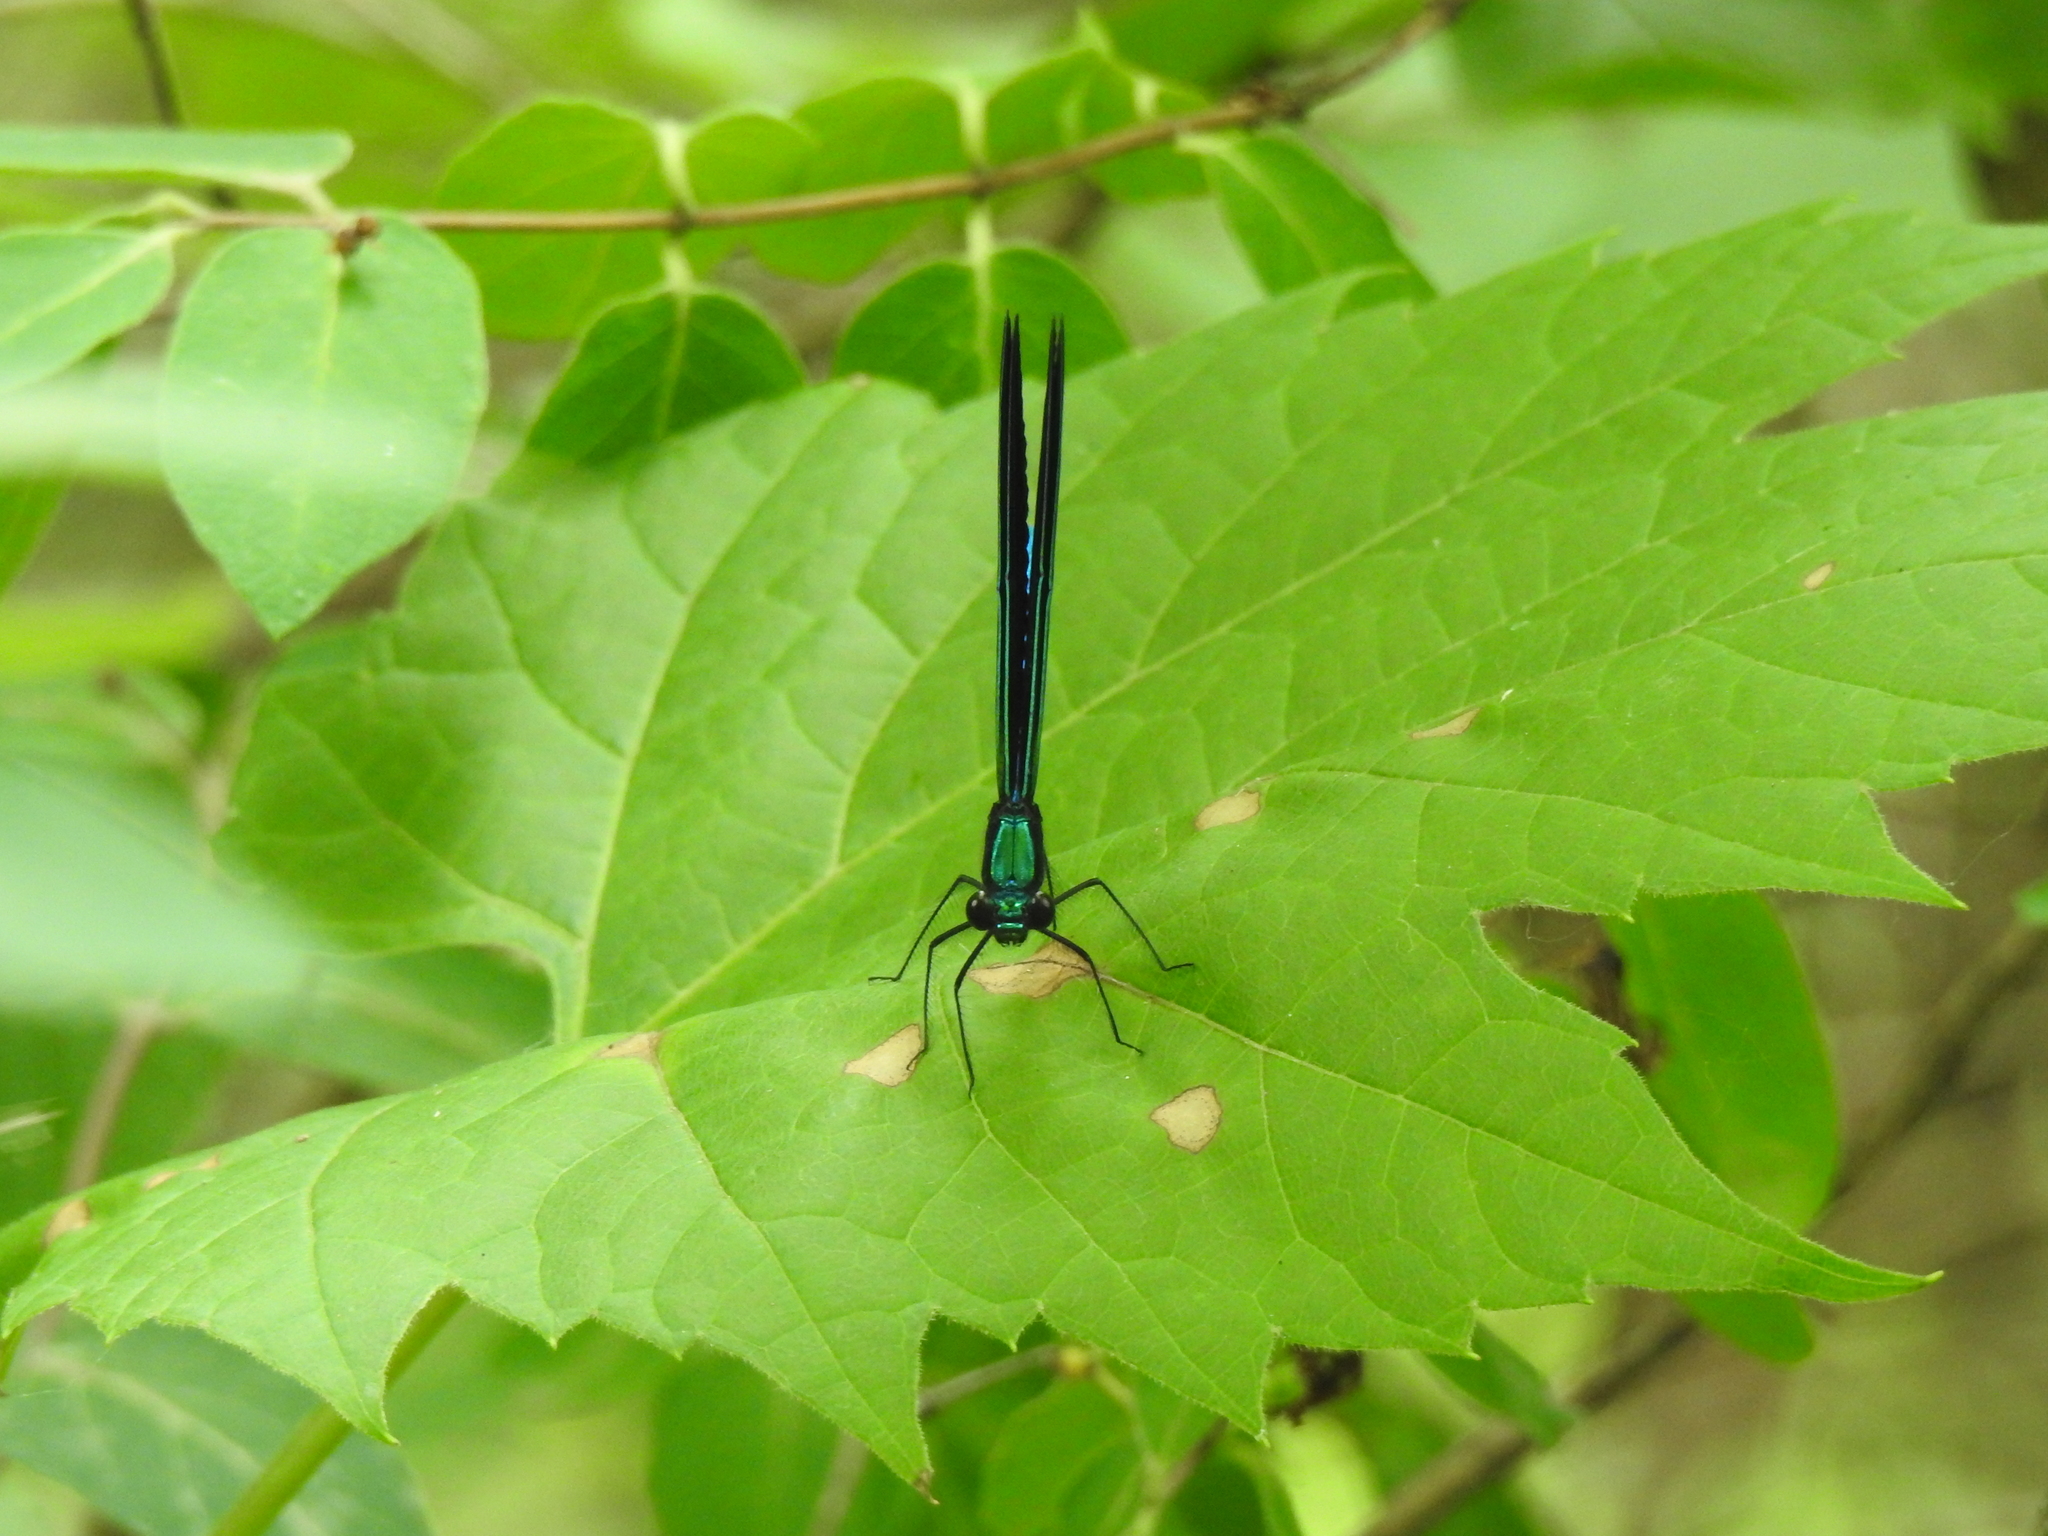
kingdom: Animalia
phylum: Arthropoda
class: Insecta
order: Odonata
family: Calopterygidae
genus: Calopteryx
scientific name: Calopteryx maculata
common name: Ebony jewelwing
